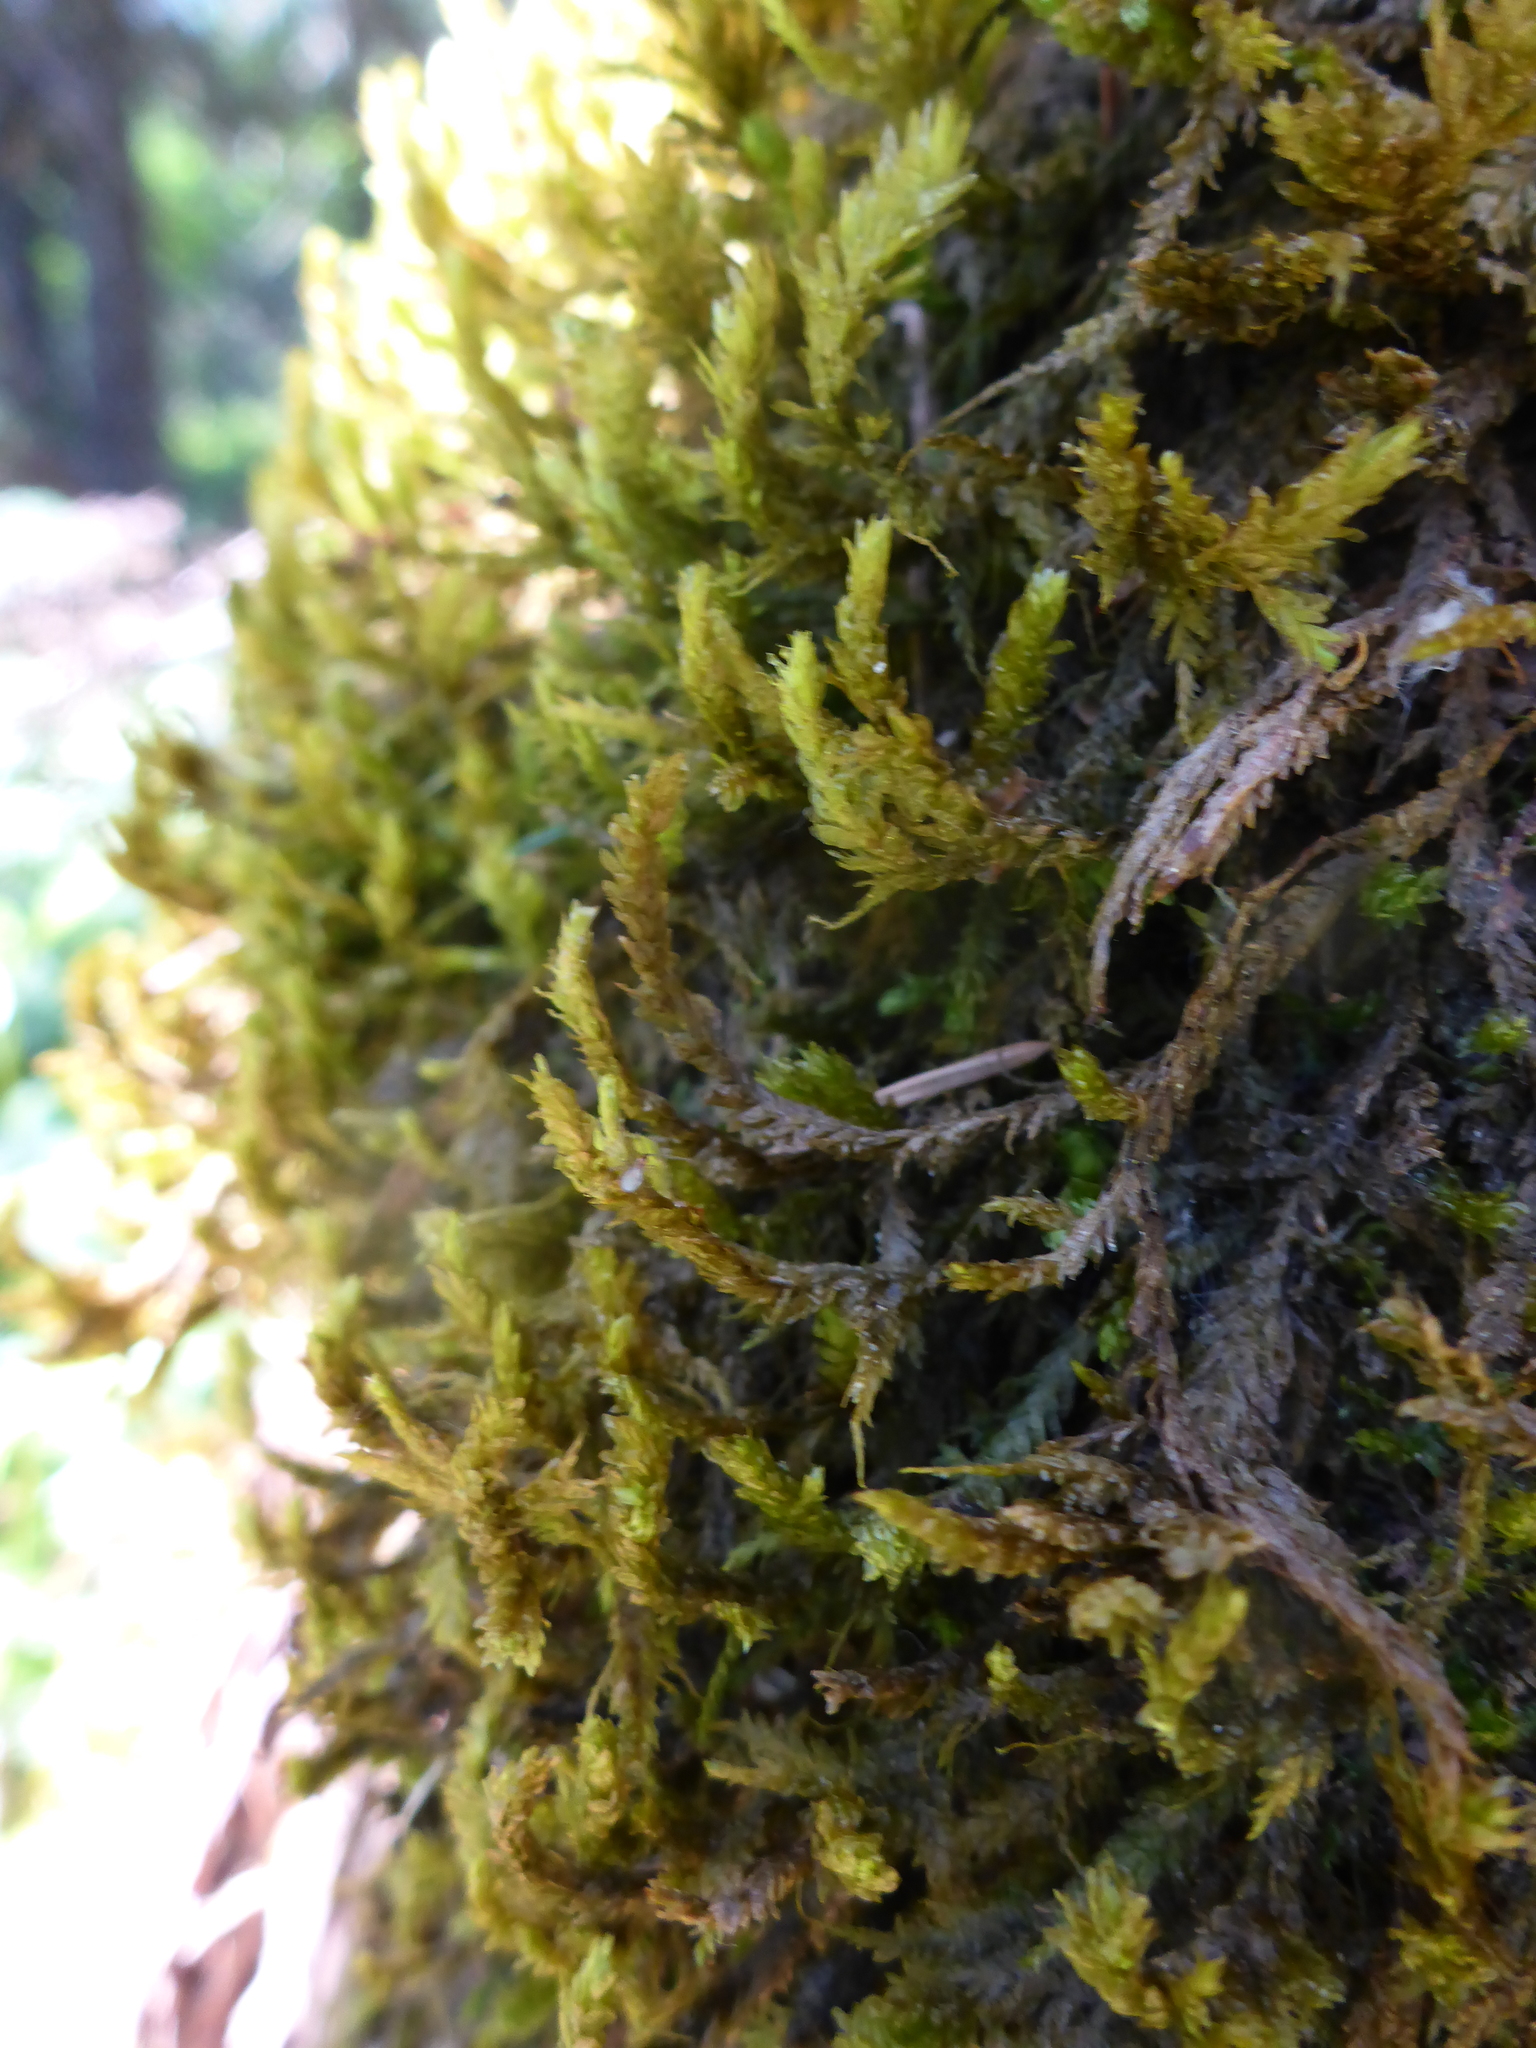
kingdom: Plantae
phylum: Bryophyta
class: Bryopsida
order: Hypnales
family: Neckeraceae
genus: Metaneckera
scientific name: Metaneckera menziesii
